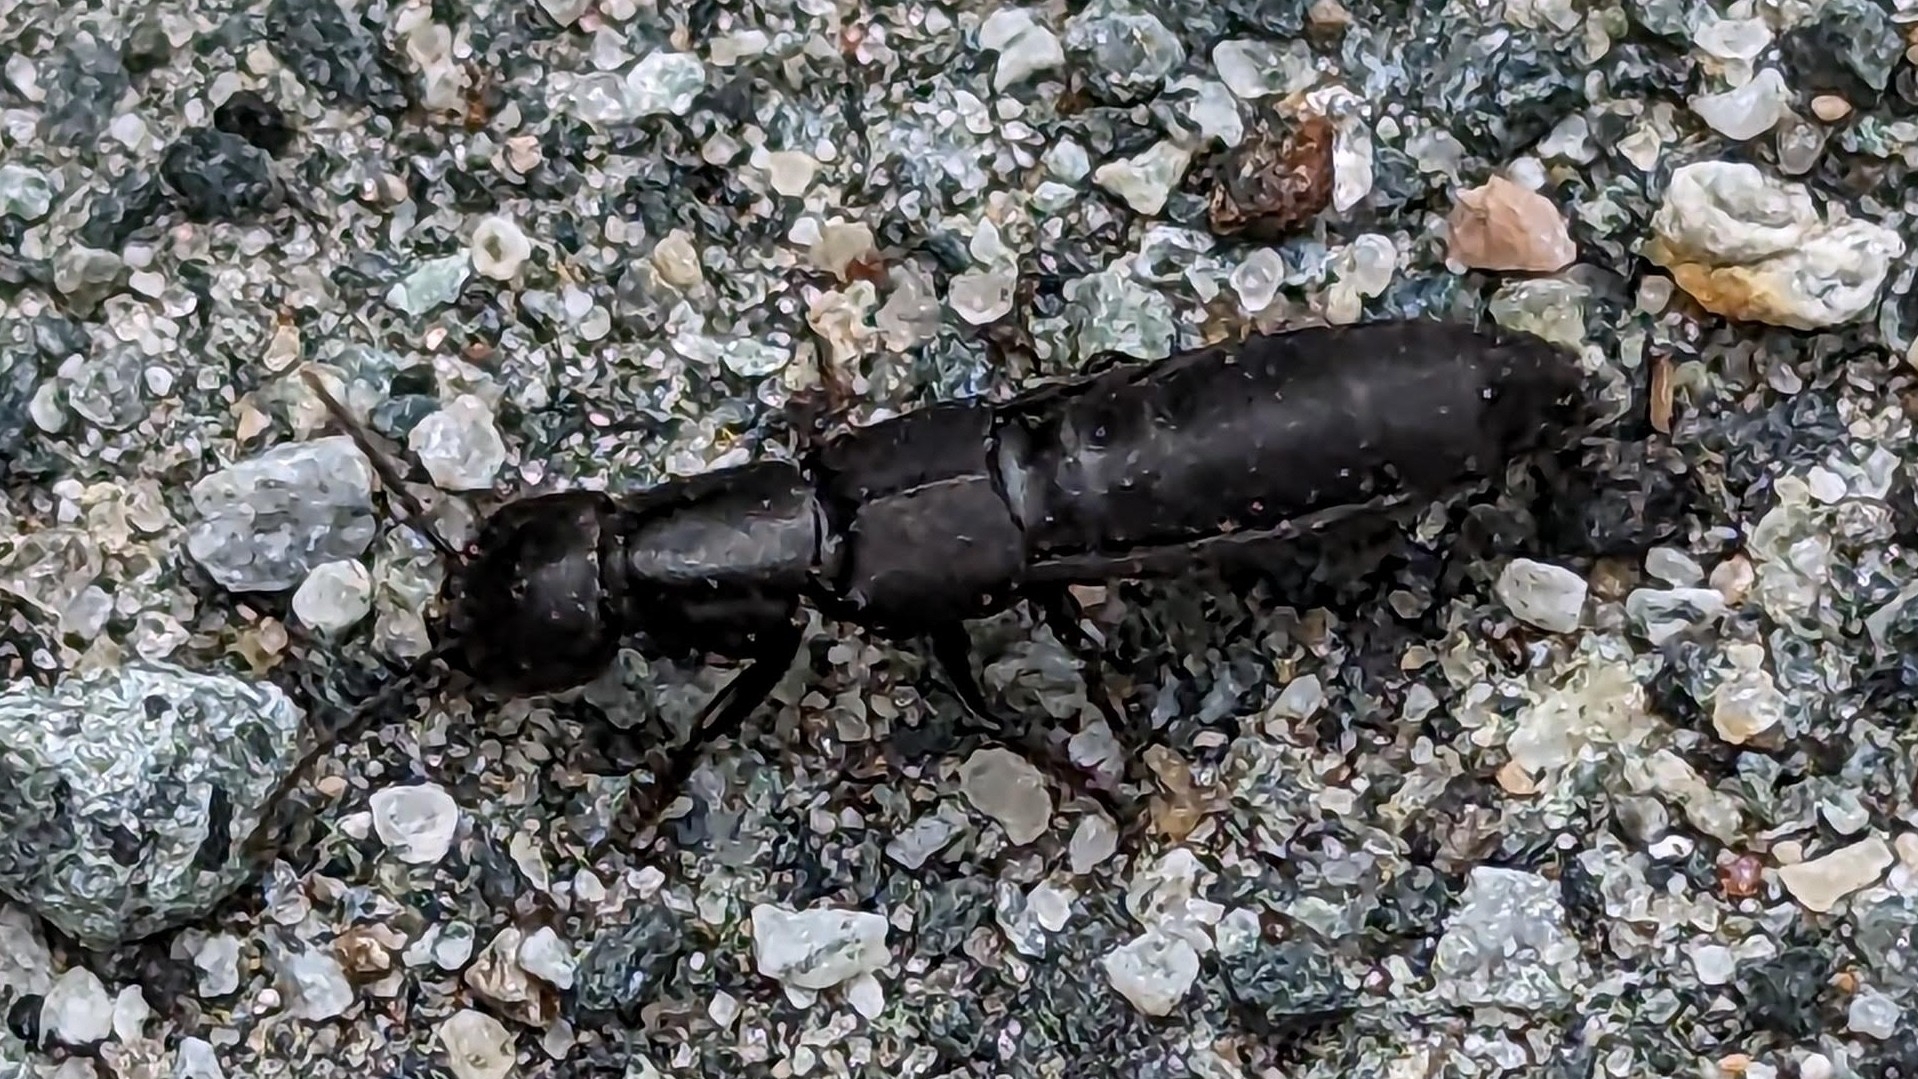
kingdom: Animalia
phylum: Arthropoda
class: Insecta
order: Coleoptera
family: Staphylinidae
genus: Ocypus
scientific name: Ocypus nitens
